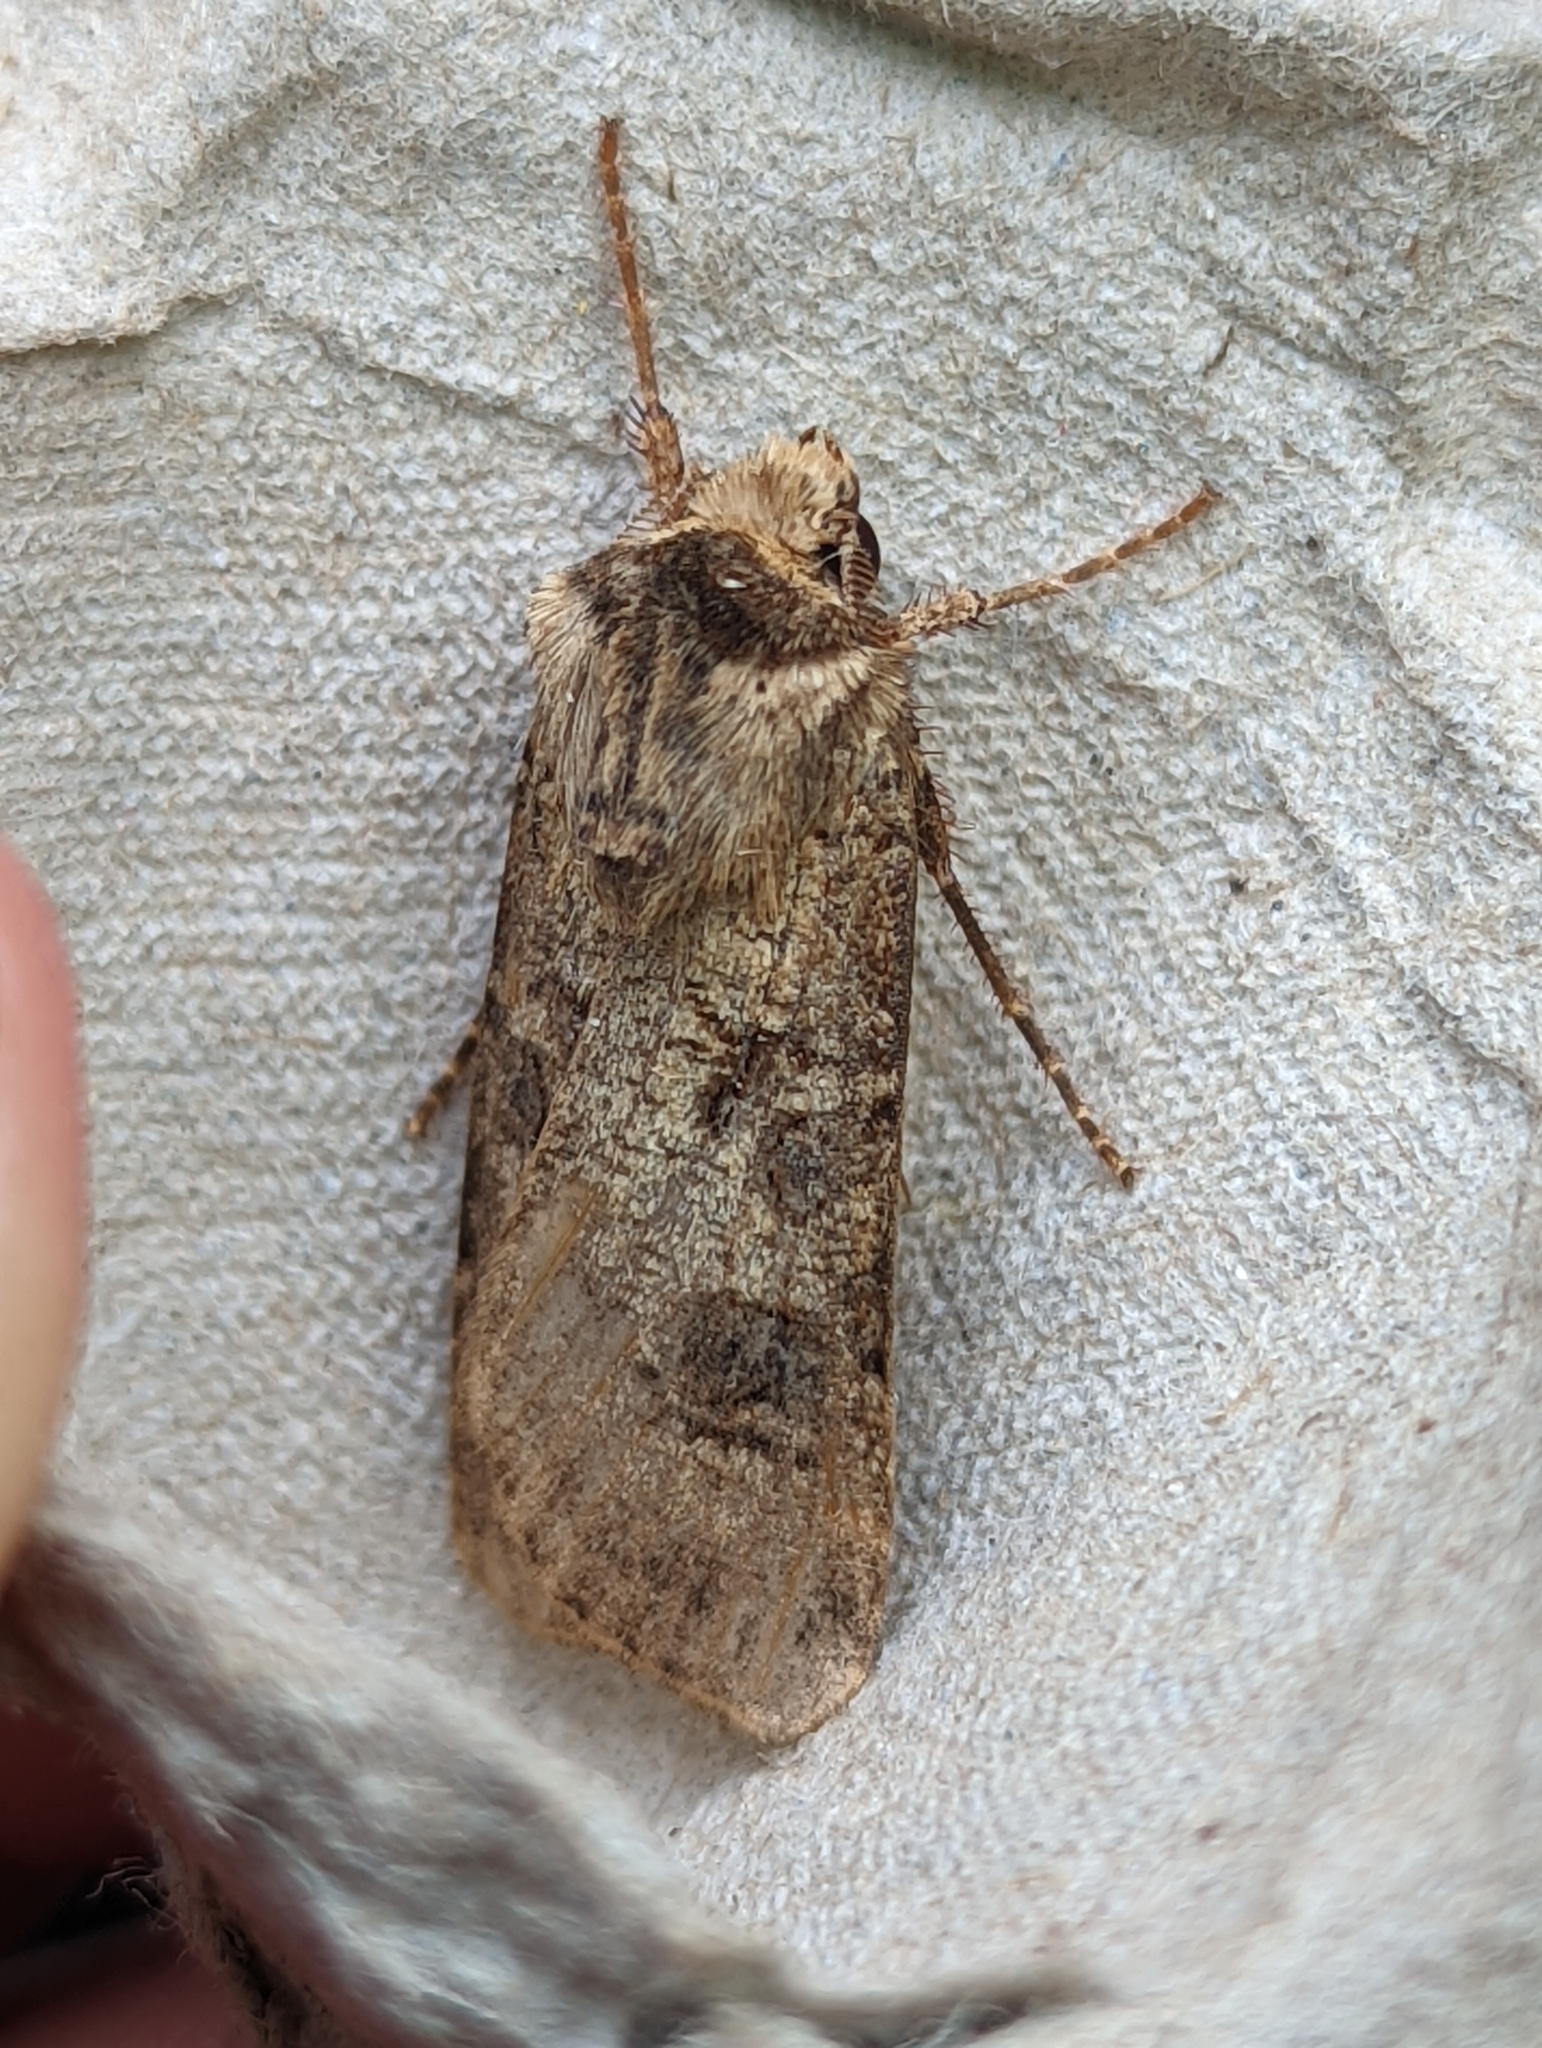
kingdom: Animalia
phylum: Arthropoda
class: Insecta
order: Lepidoptera
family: Noctuidae
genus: Agrotis
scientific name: Agrotis clavis
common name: Heart and club
